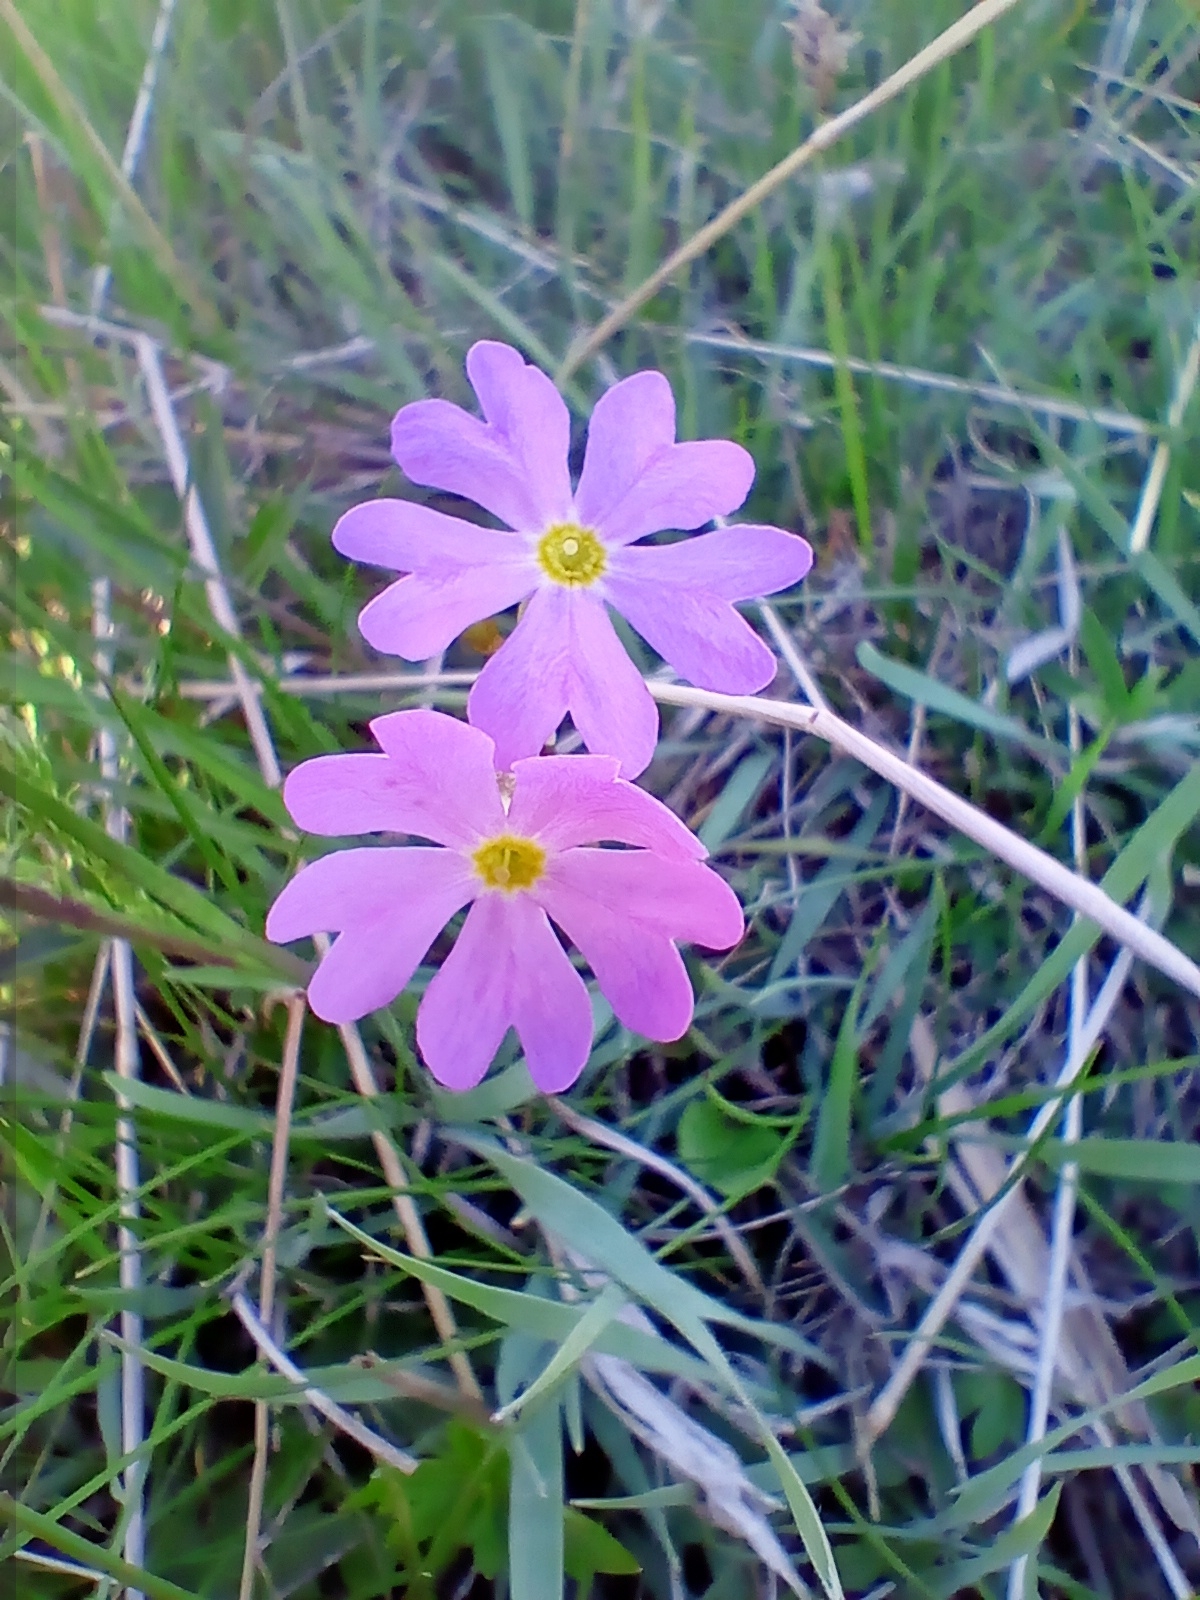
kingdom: Plantae
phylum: Tracheophyta
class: Magnoliopsida
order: Ericales
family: Primulaceae
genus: Primula
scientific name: Primula nutans
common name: Siberian primrose
